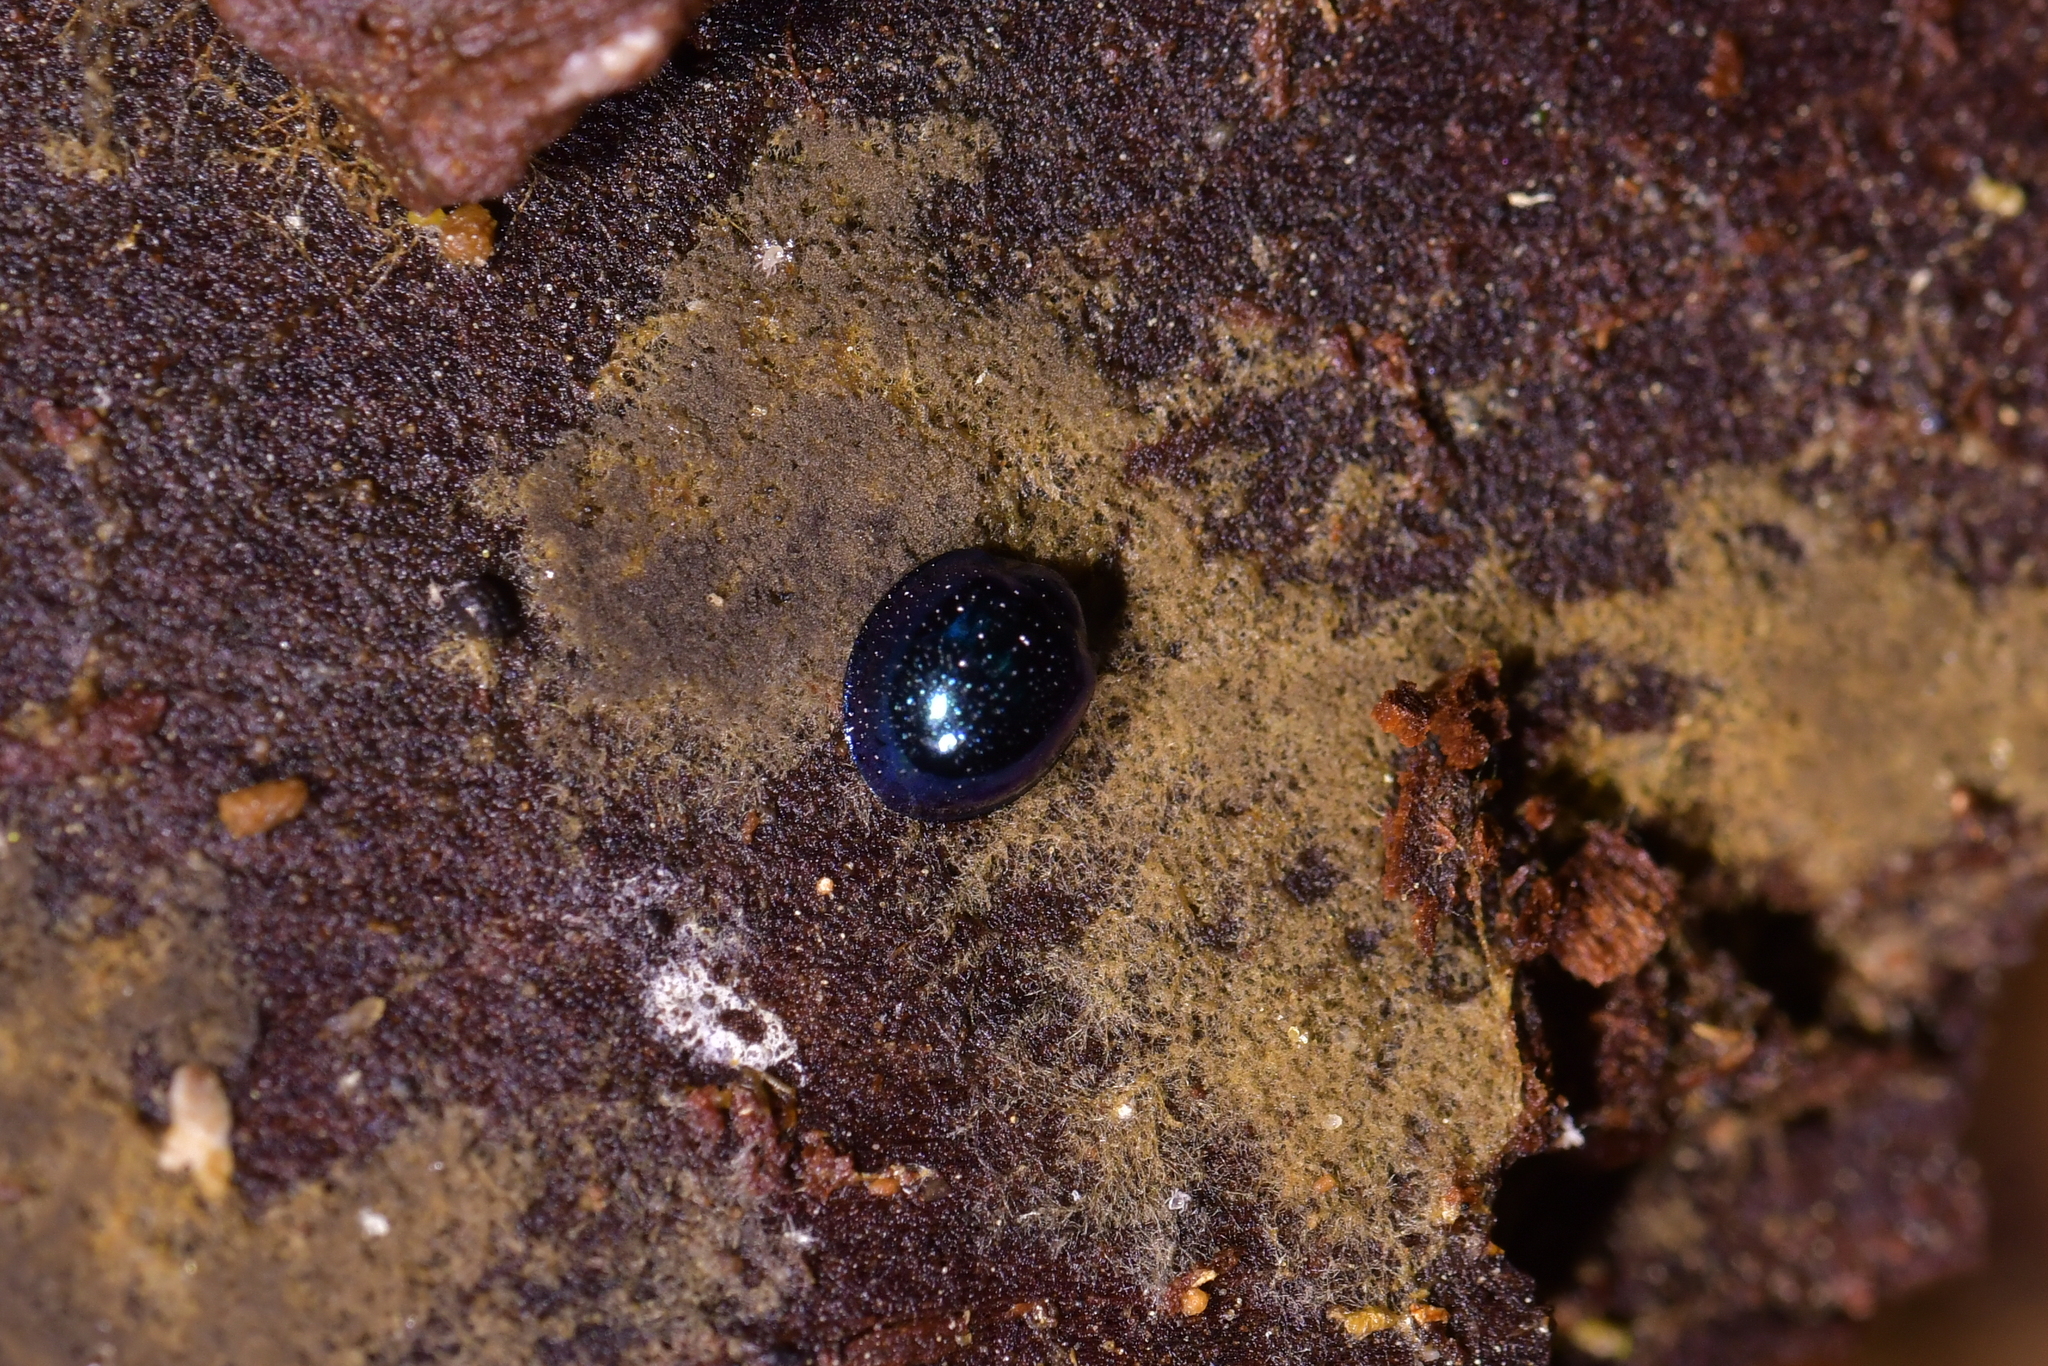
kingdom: Animalia
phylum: Arthropoda
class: Insecta
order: Coleoptera
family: Coccinellidae
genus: Halmus
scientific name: Halmus chalybeus
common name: Steel blue ladybird beetle
